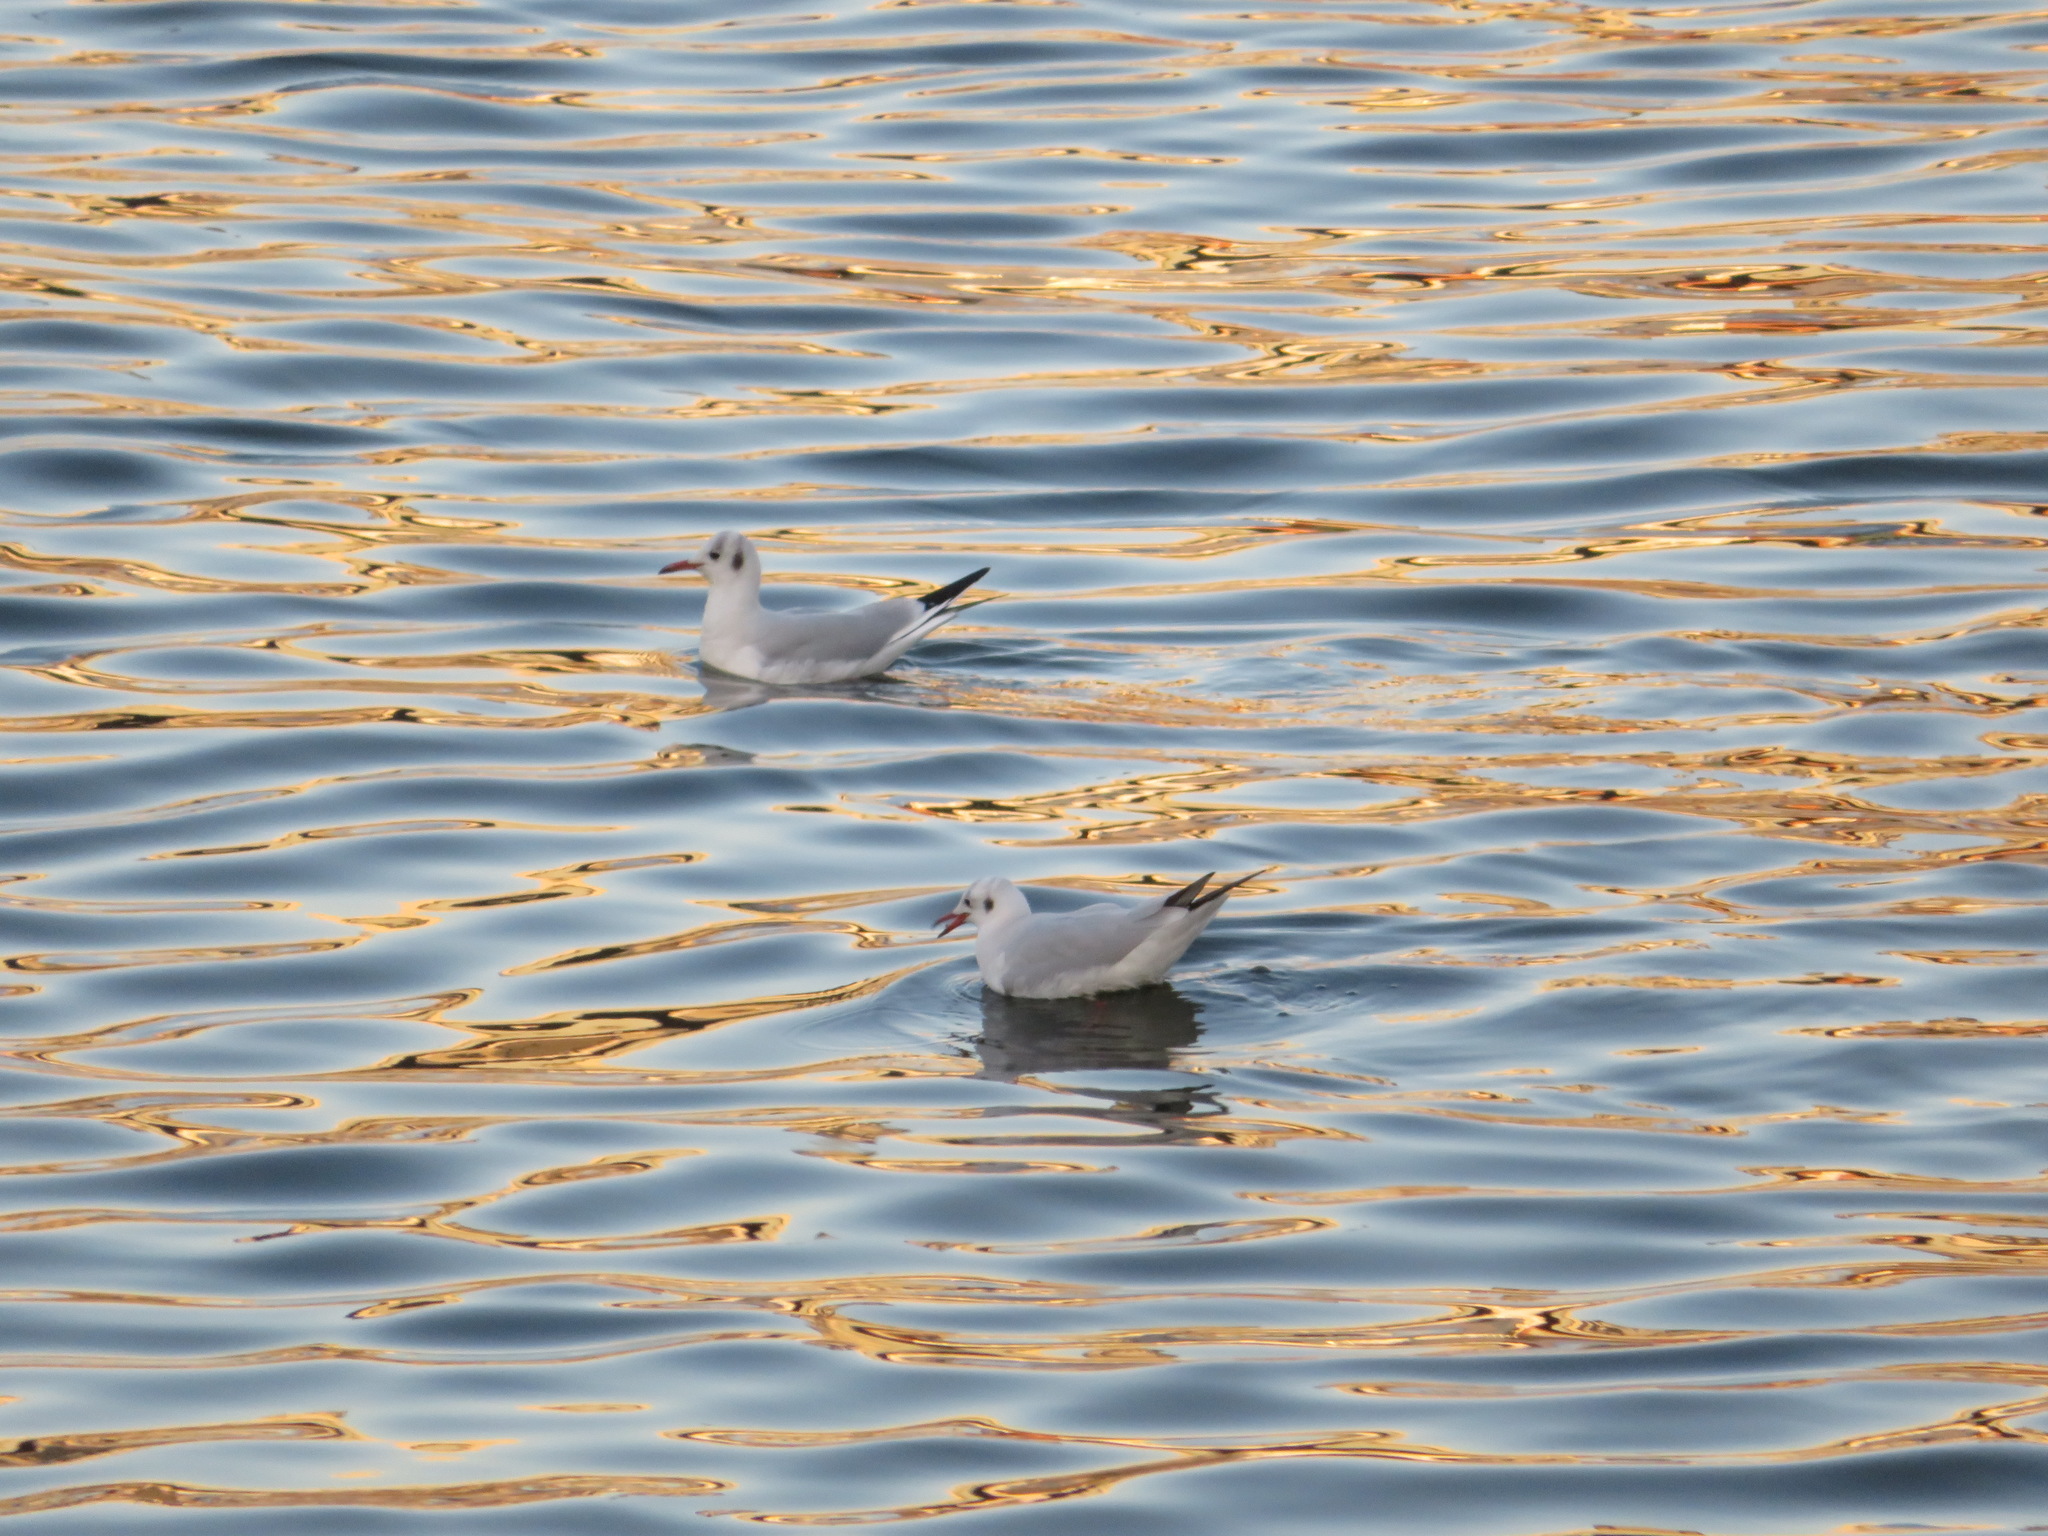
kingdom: Animalia
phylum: Chordata
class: Aves
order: Charadriiformes
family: Laridae
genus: Chroicocephalus
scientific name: Chroicocephalus ridibundus
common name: Black-headed gull
